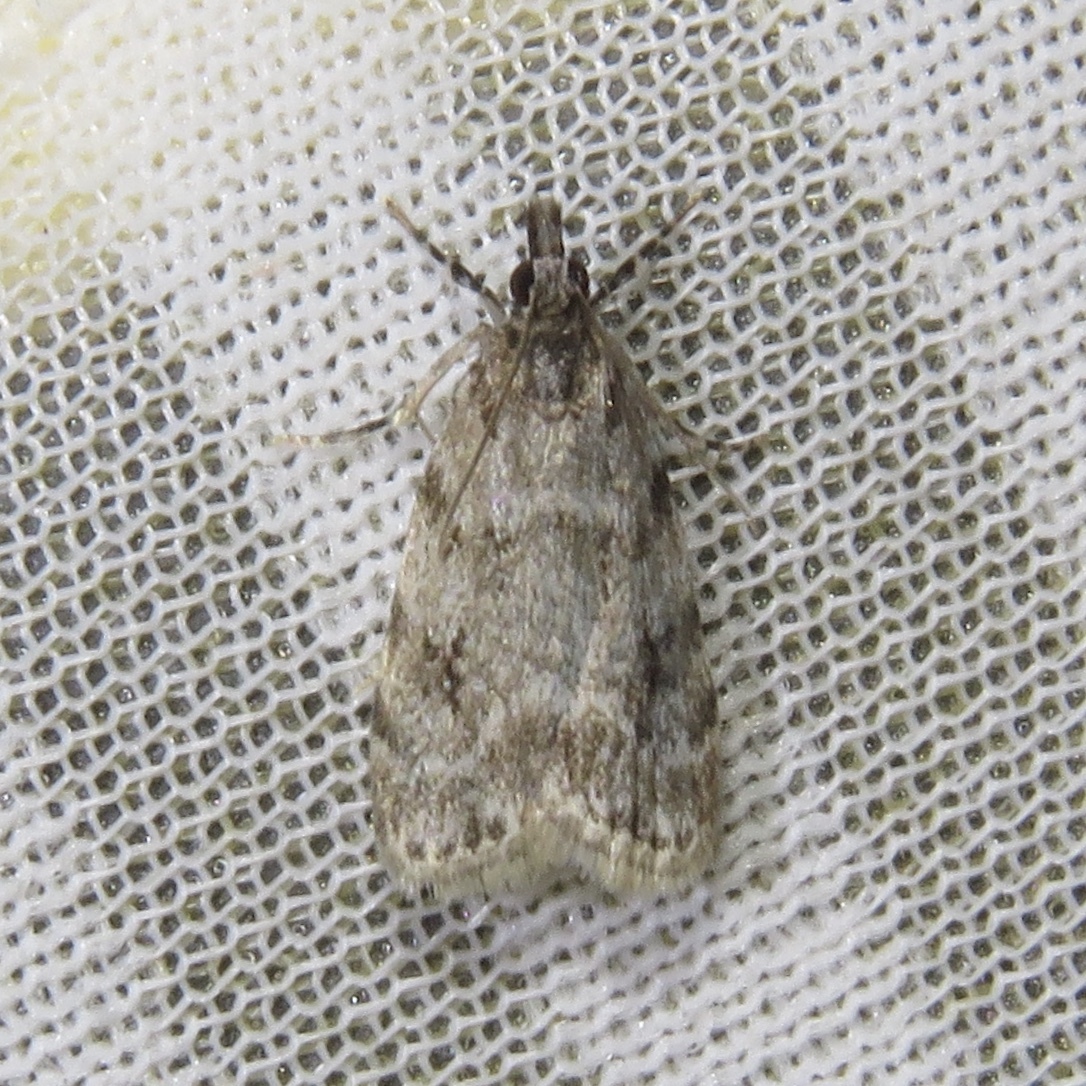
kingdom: Animalia
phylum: Arthropoda
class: Insecta
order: Lepidoptera
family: Crambidae
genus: Scoparia
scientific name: Scoparia basalis
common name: Many-spotted scoparia moth
